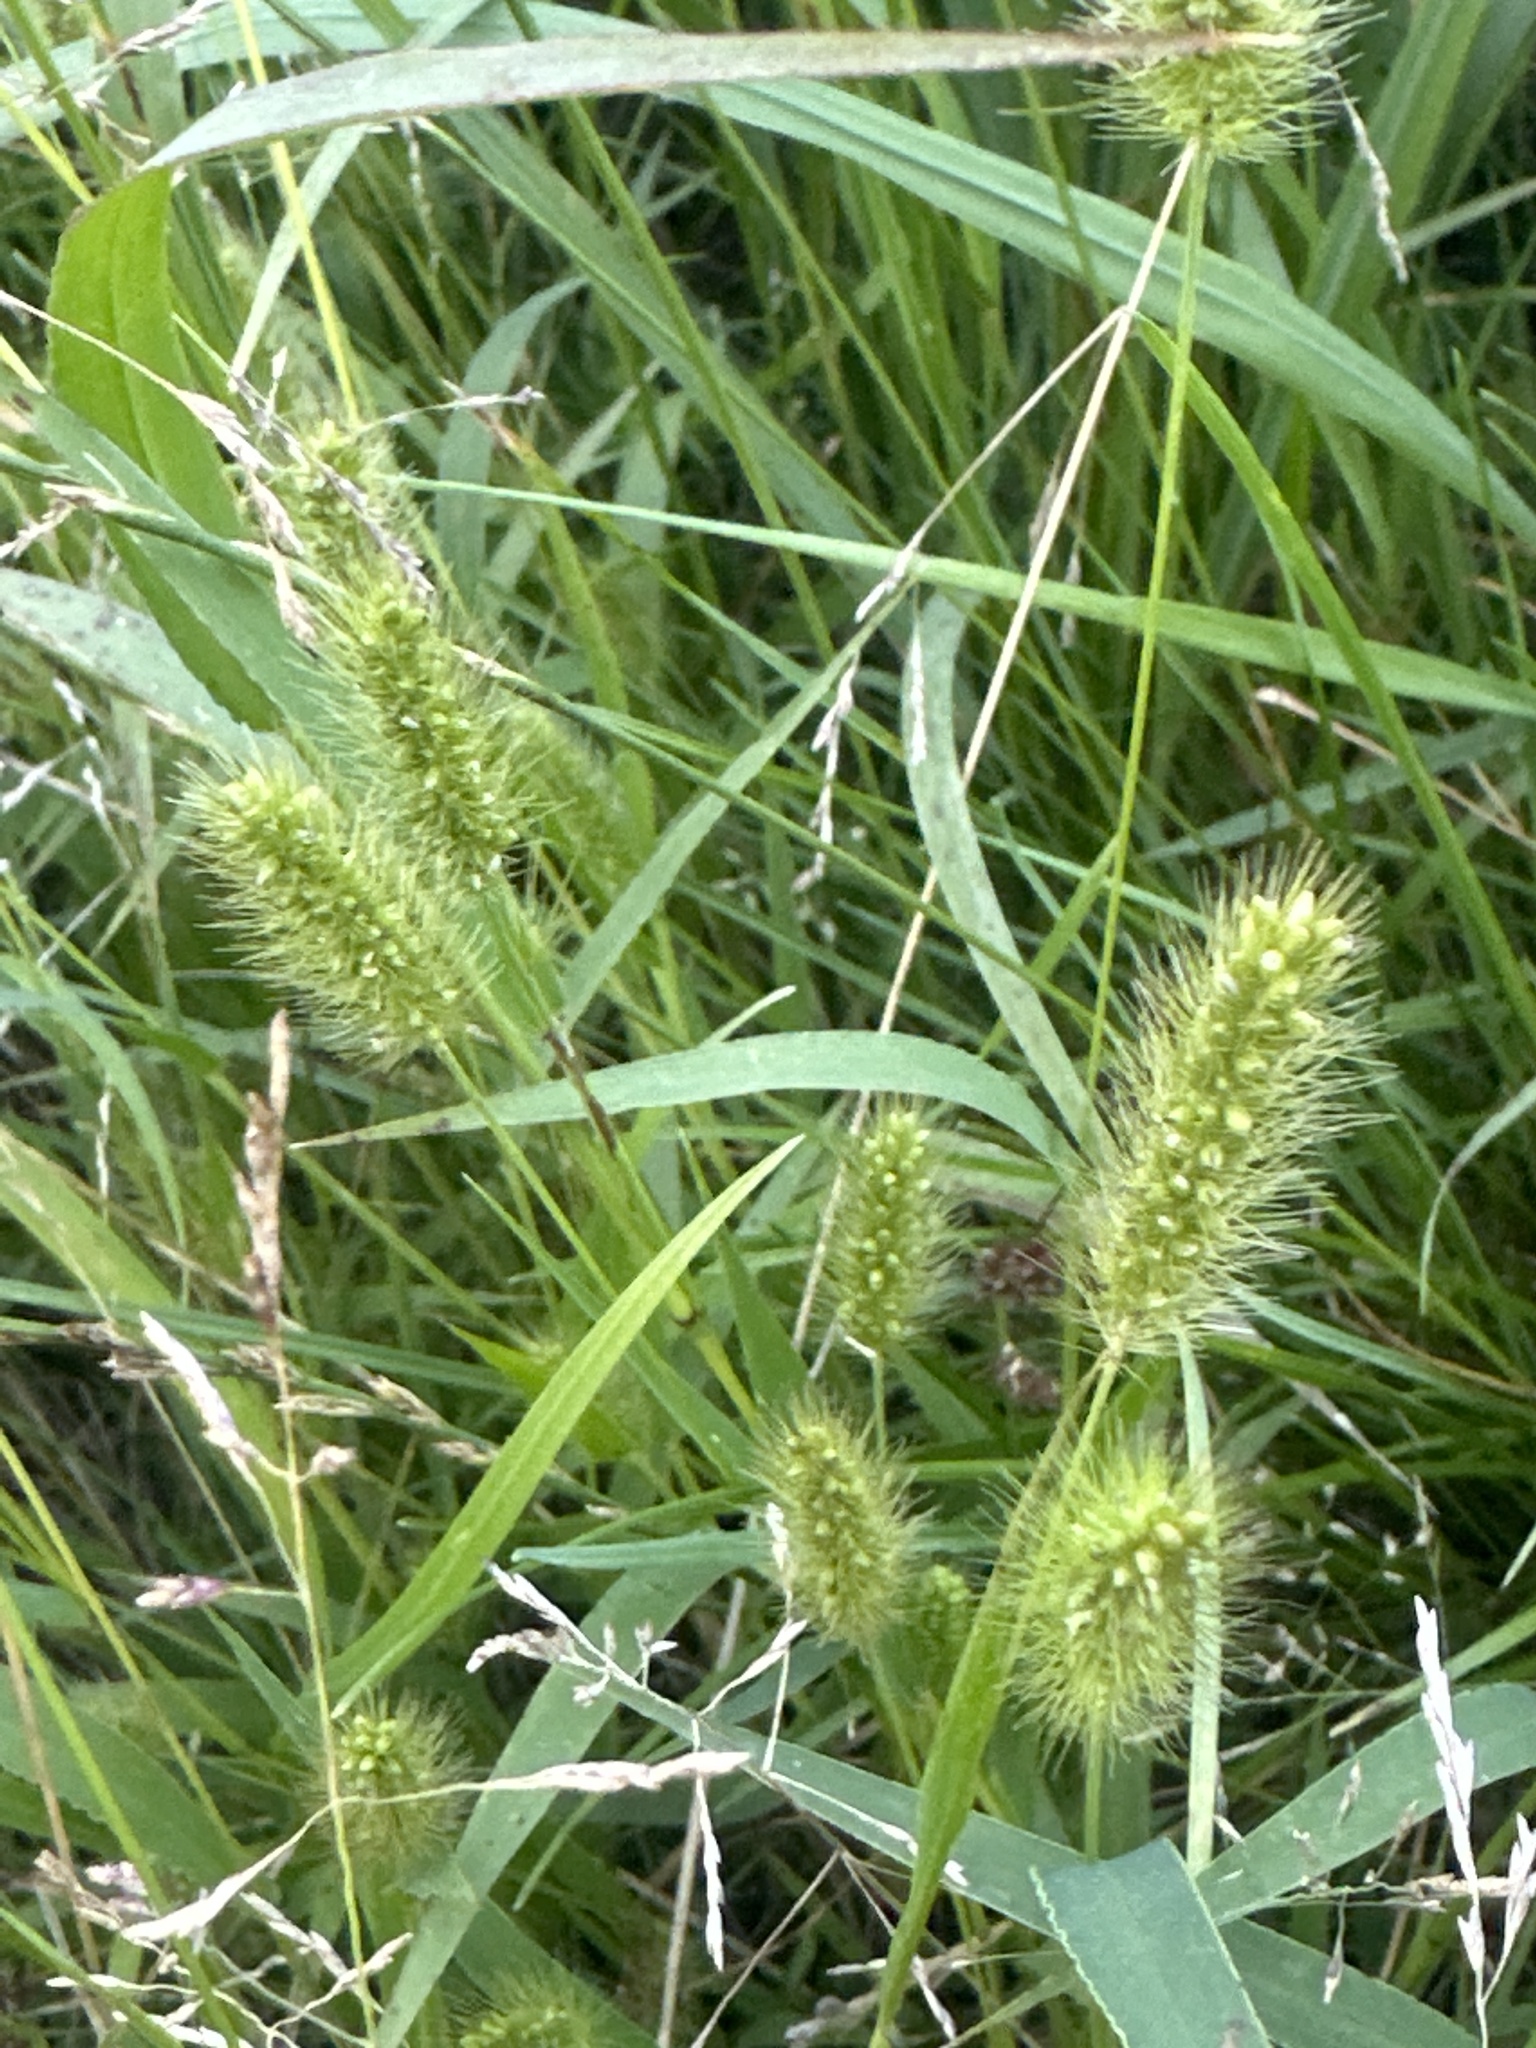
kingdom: Plantae
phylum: Tracheophyta
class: Liliopsida
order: Poales
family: Poaceae
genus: Setaria
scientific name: Setaria viridis
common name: Green bristlegrass
